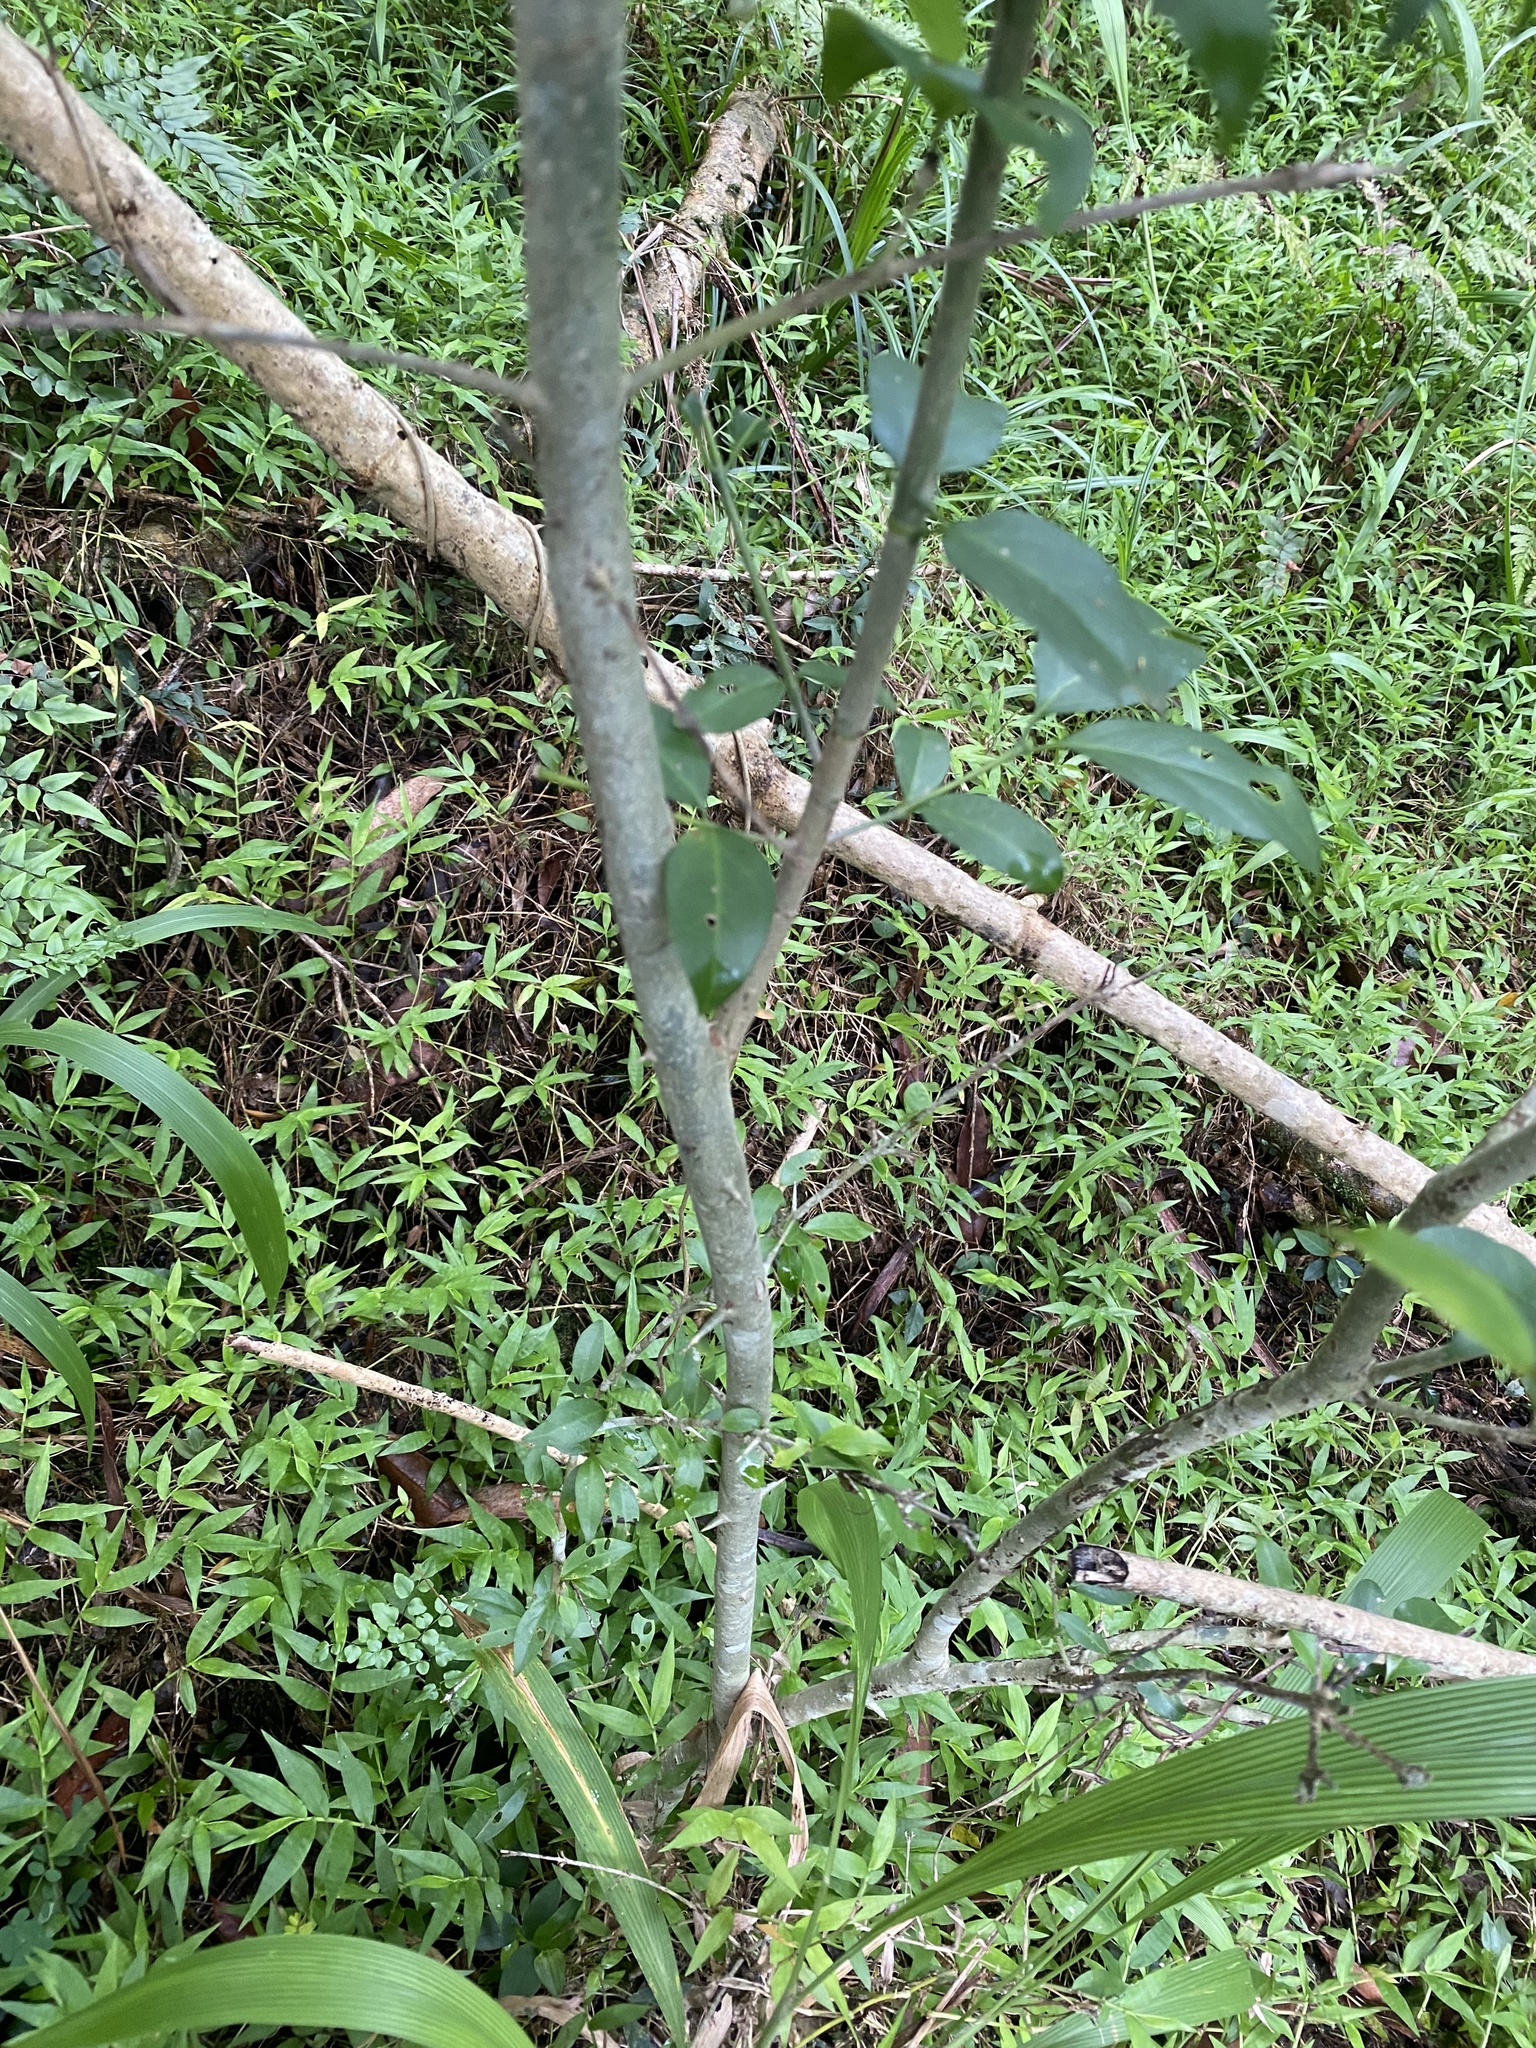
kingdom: Plantae
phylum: Tracheophyta
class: Magnoliopsida
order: Gentianales
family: Rubiaceae
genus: Canthium
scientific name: Canthium inerme
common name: Unarmed turkey-berry
